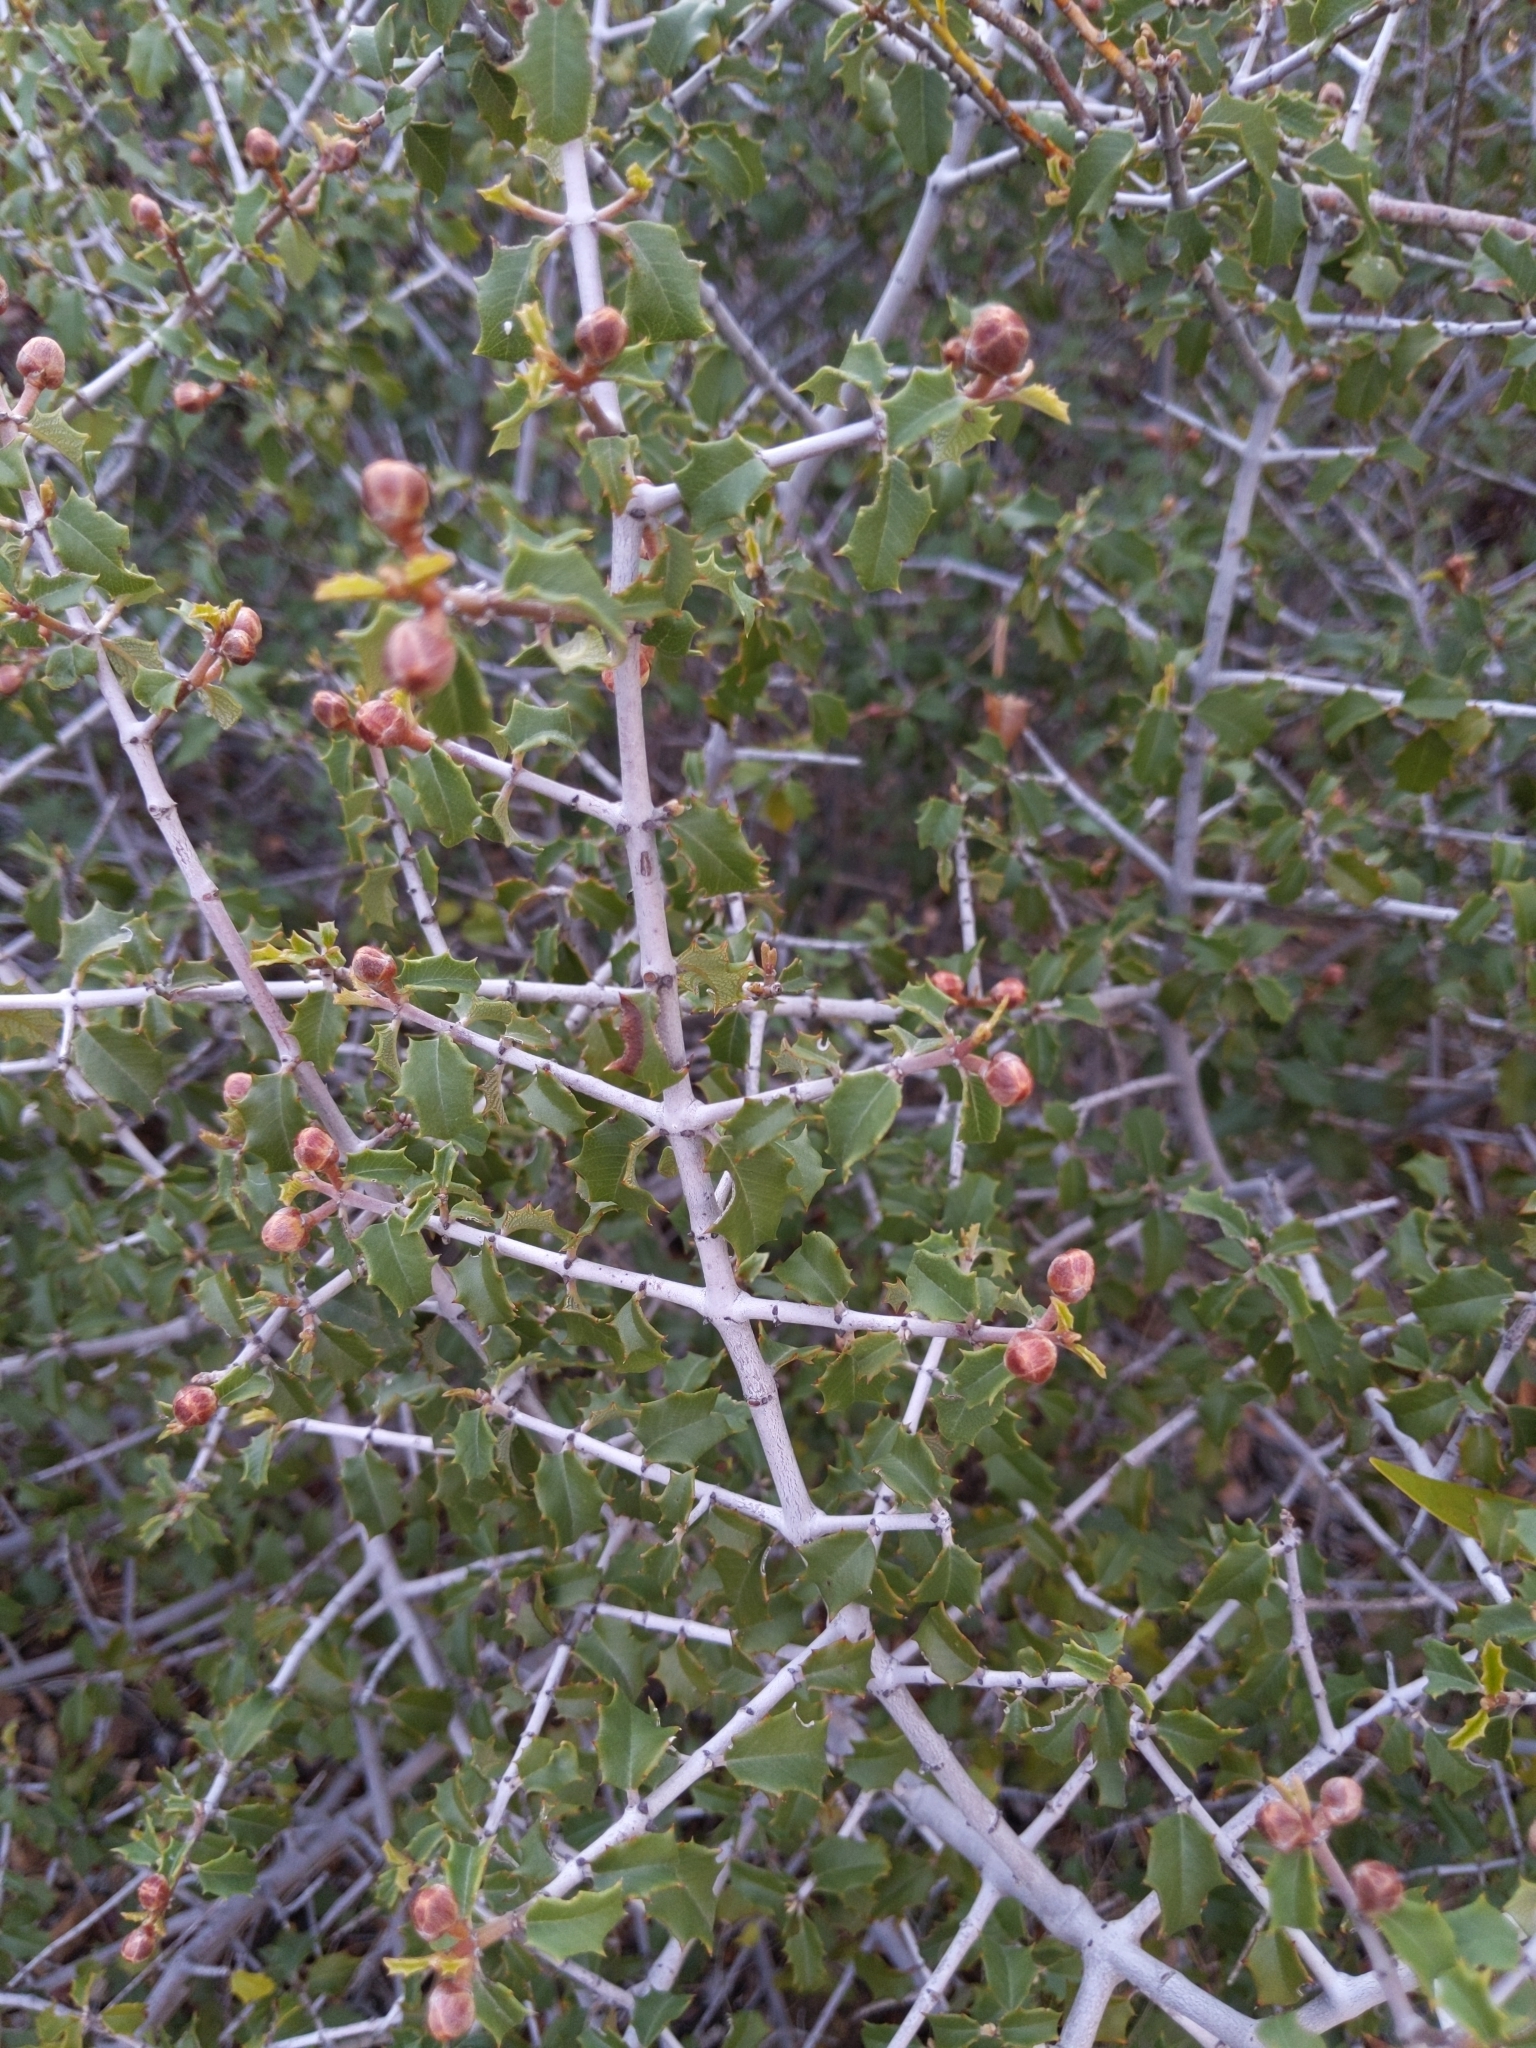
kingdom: Plantae
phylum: Tracheophyta
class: Magnoliopsida
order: Rosales
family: Rhamnaceae
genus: Ceanothus
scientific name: Ceanothus jepsonii
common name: Muskbrush
